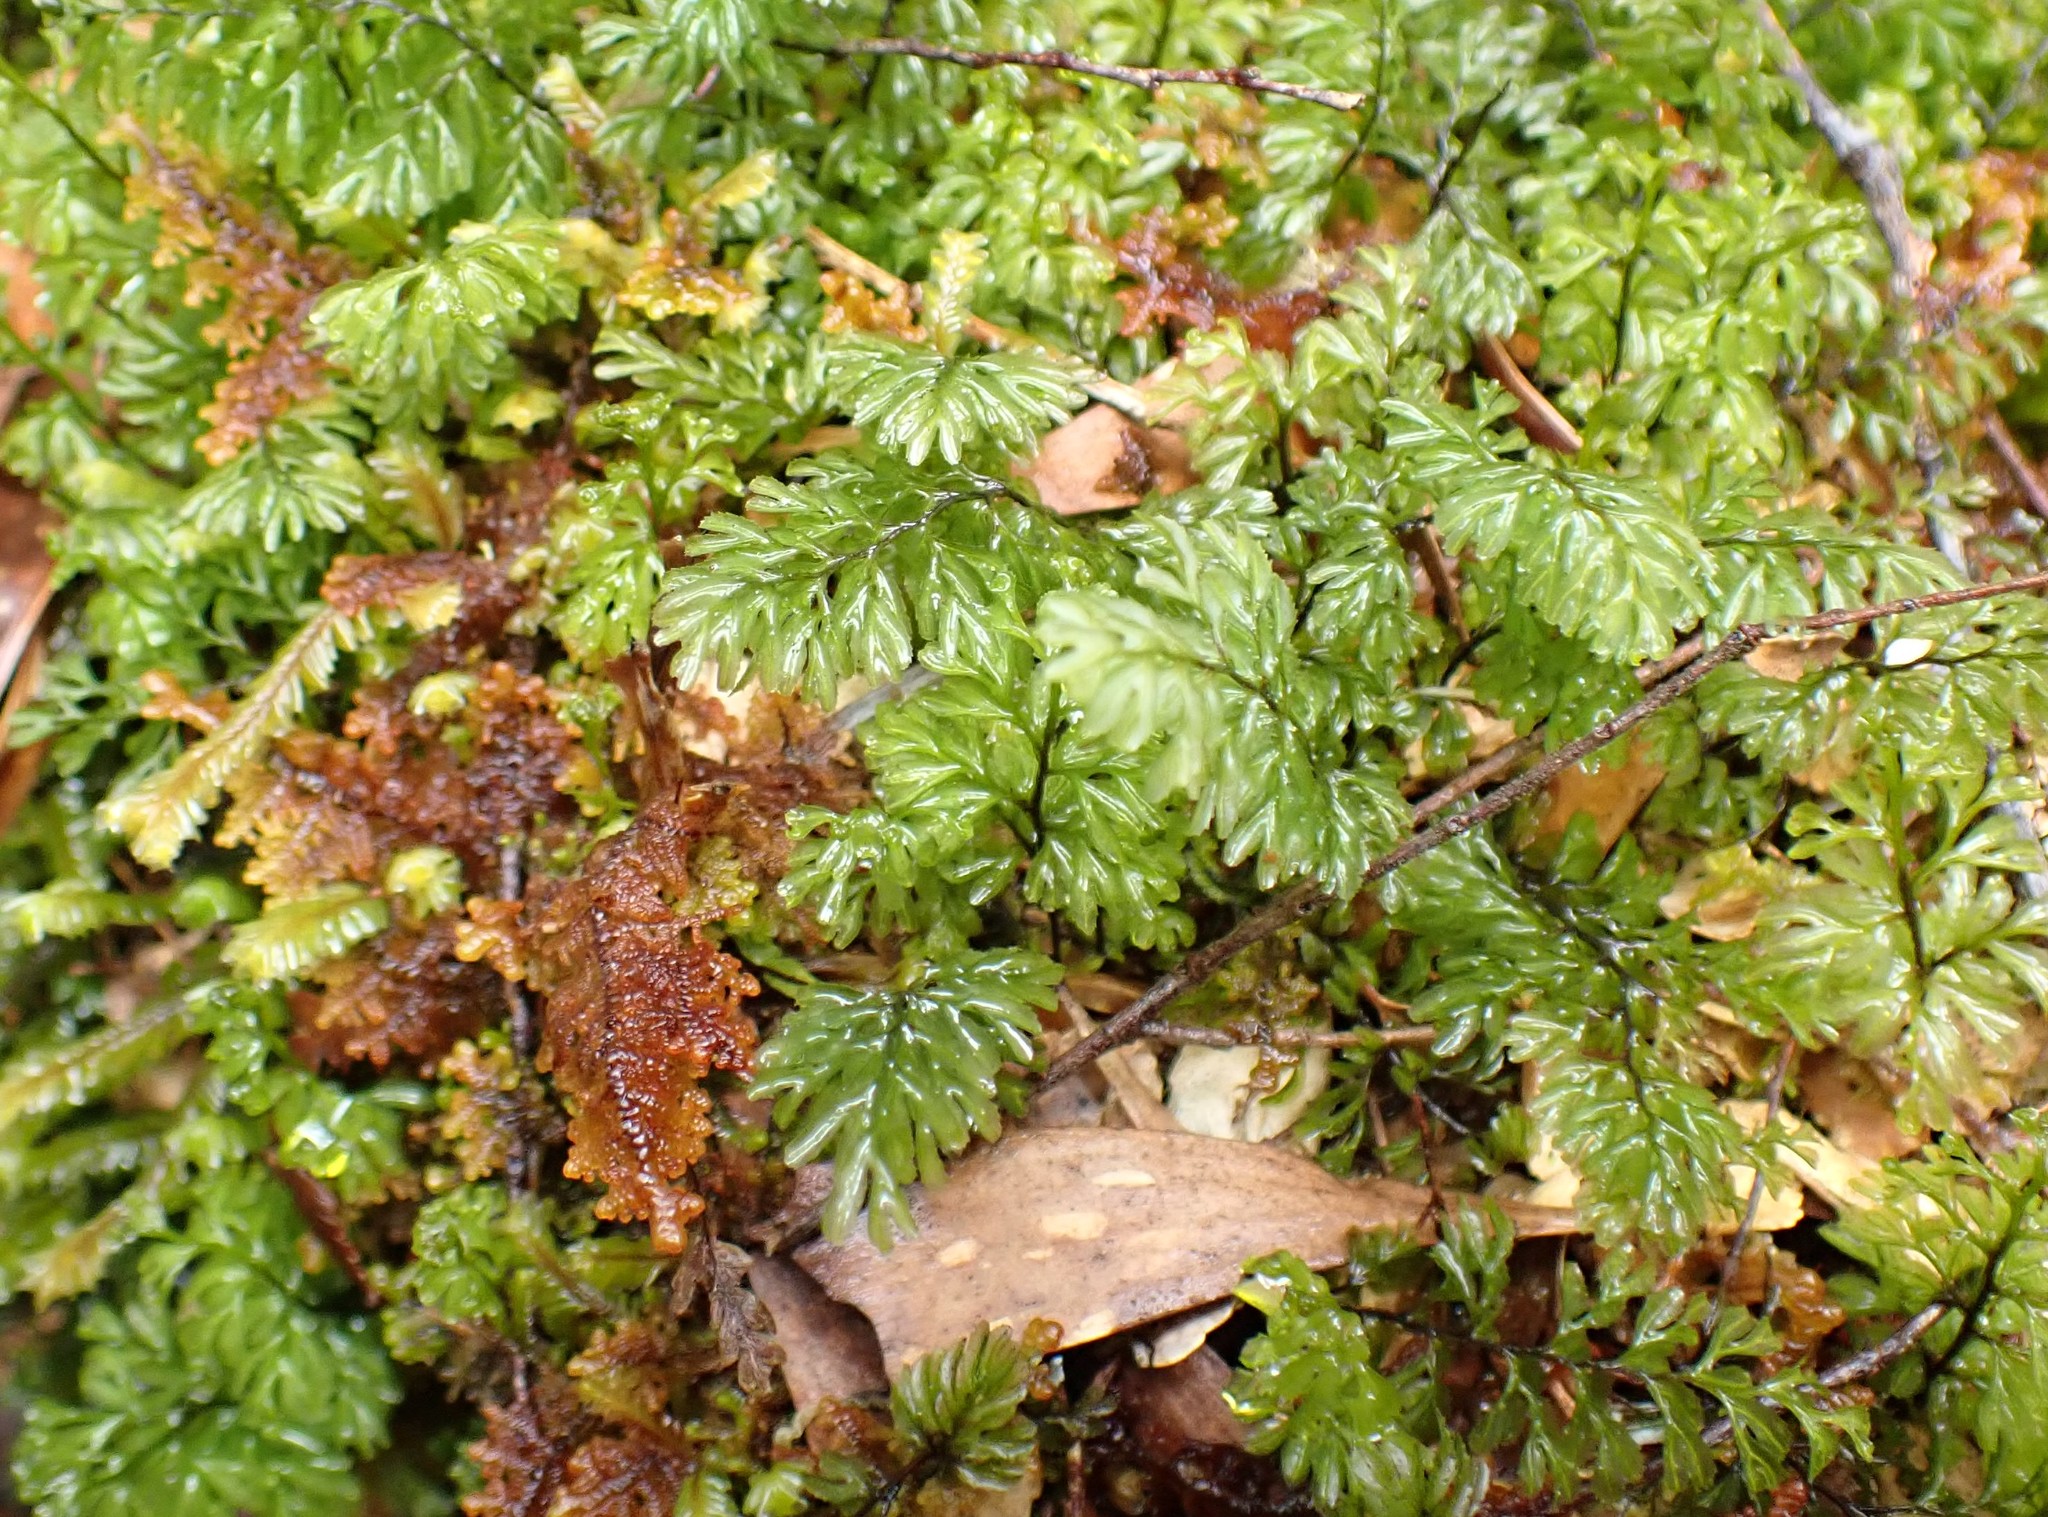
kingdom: Plantae
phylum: Tracheophyta
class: Polypodiopsida
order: Hymenophyllales
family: Hymenophyllaceae
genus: Hymenophyllum
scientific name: Hymenophyllum cupressiforme
